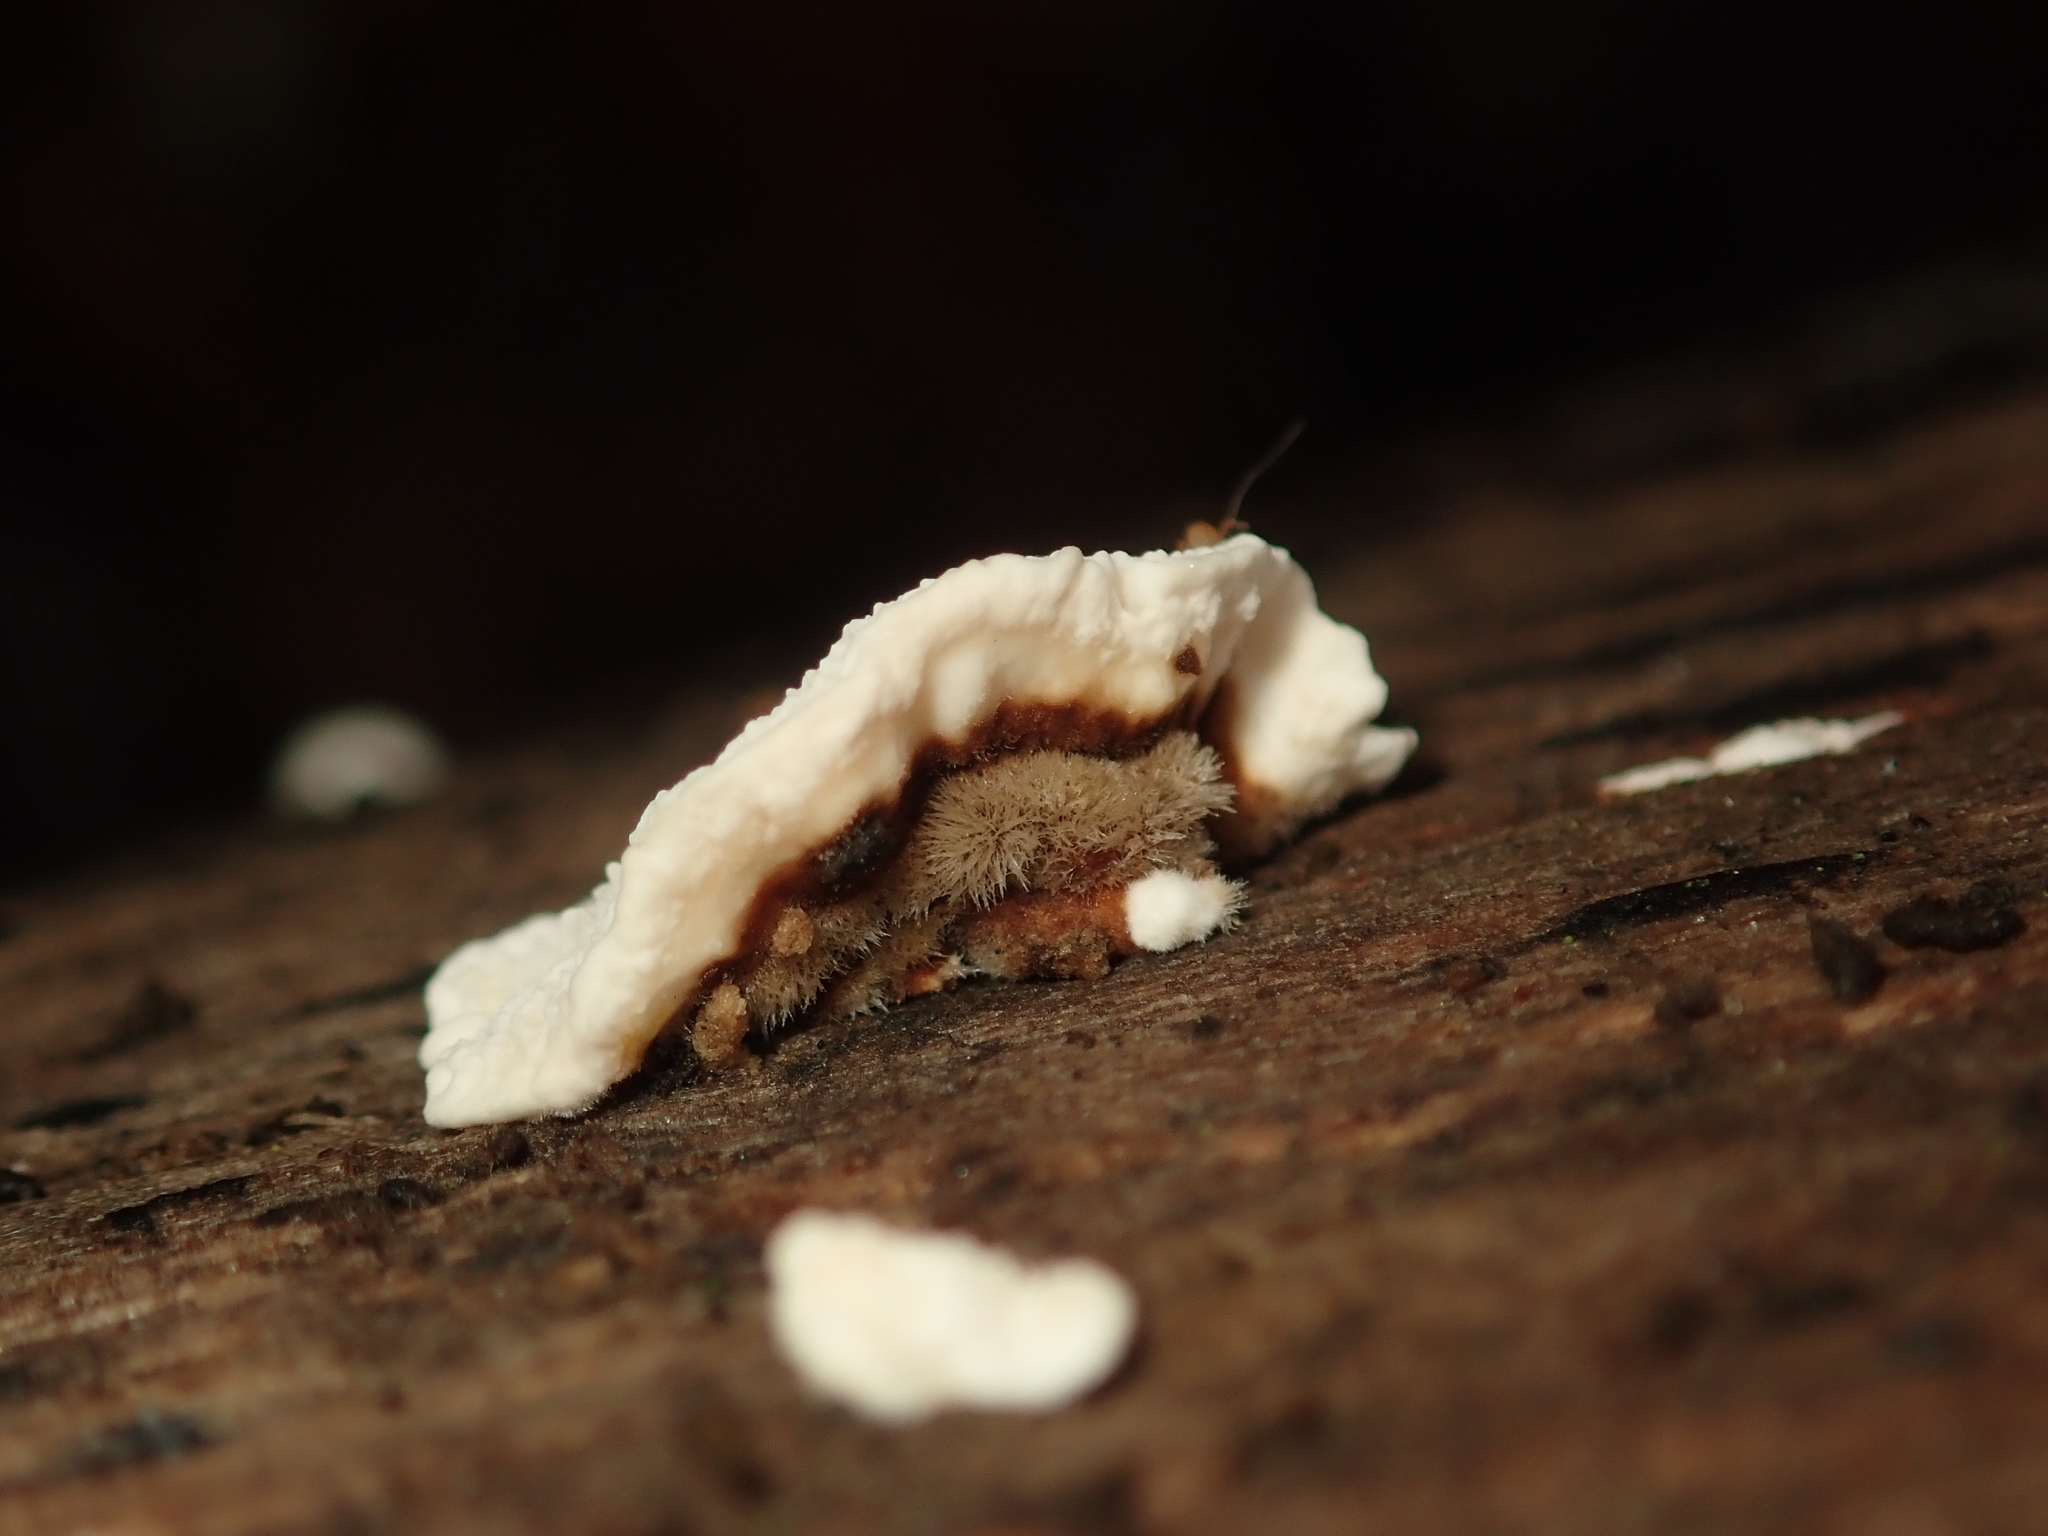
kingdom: Fungi
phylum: Basidiomycota
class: Agaricomycetes
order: Polyporales
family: Polyporaceae
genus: Trametes
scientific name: Trametes versicolor
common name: Turkeytail
